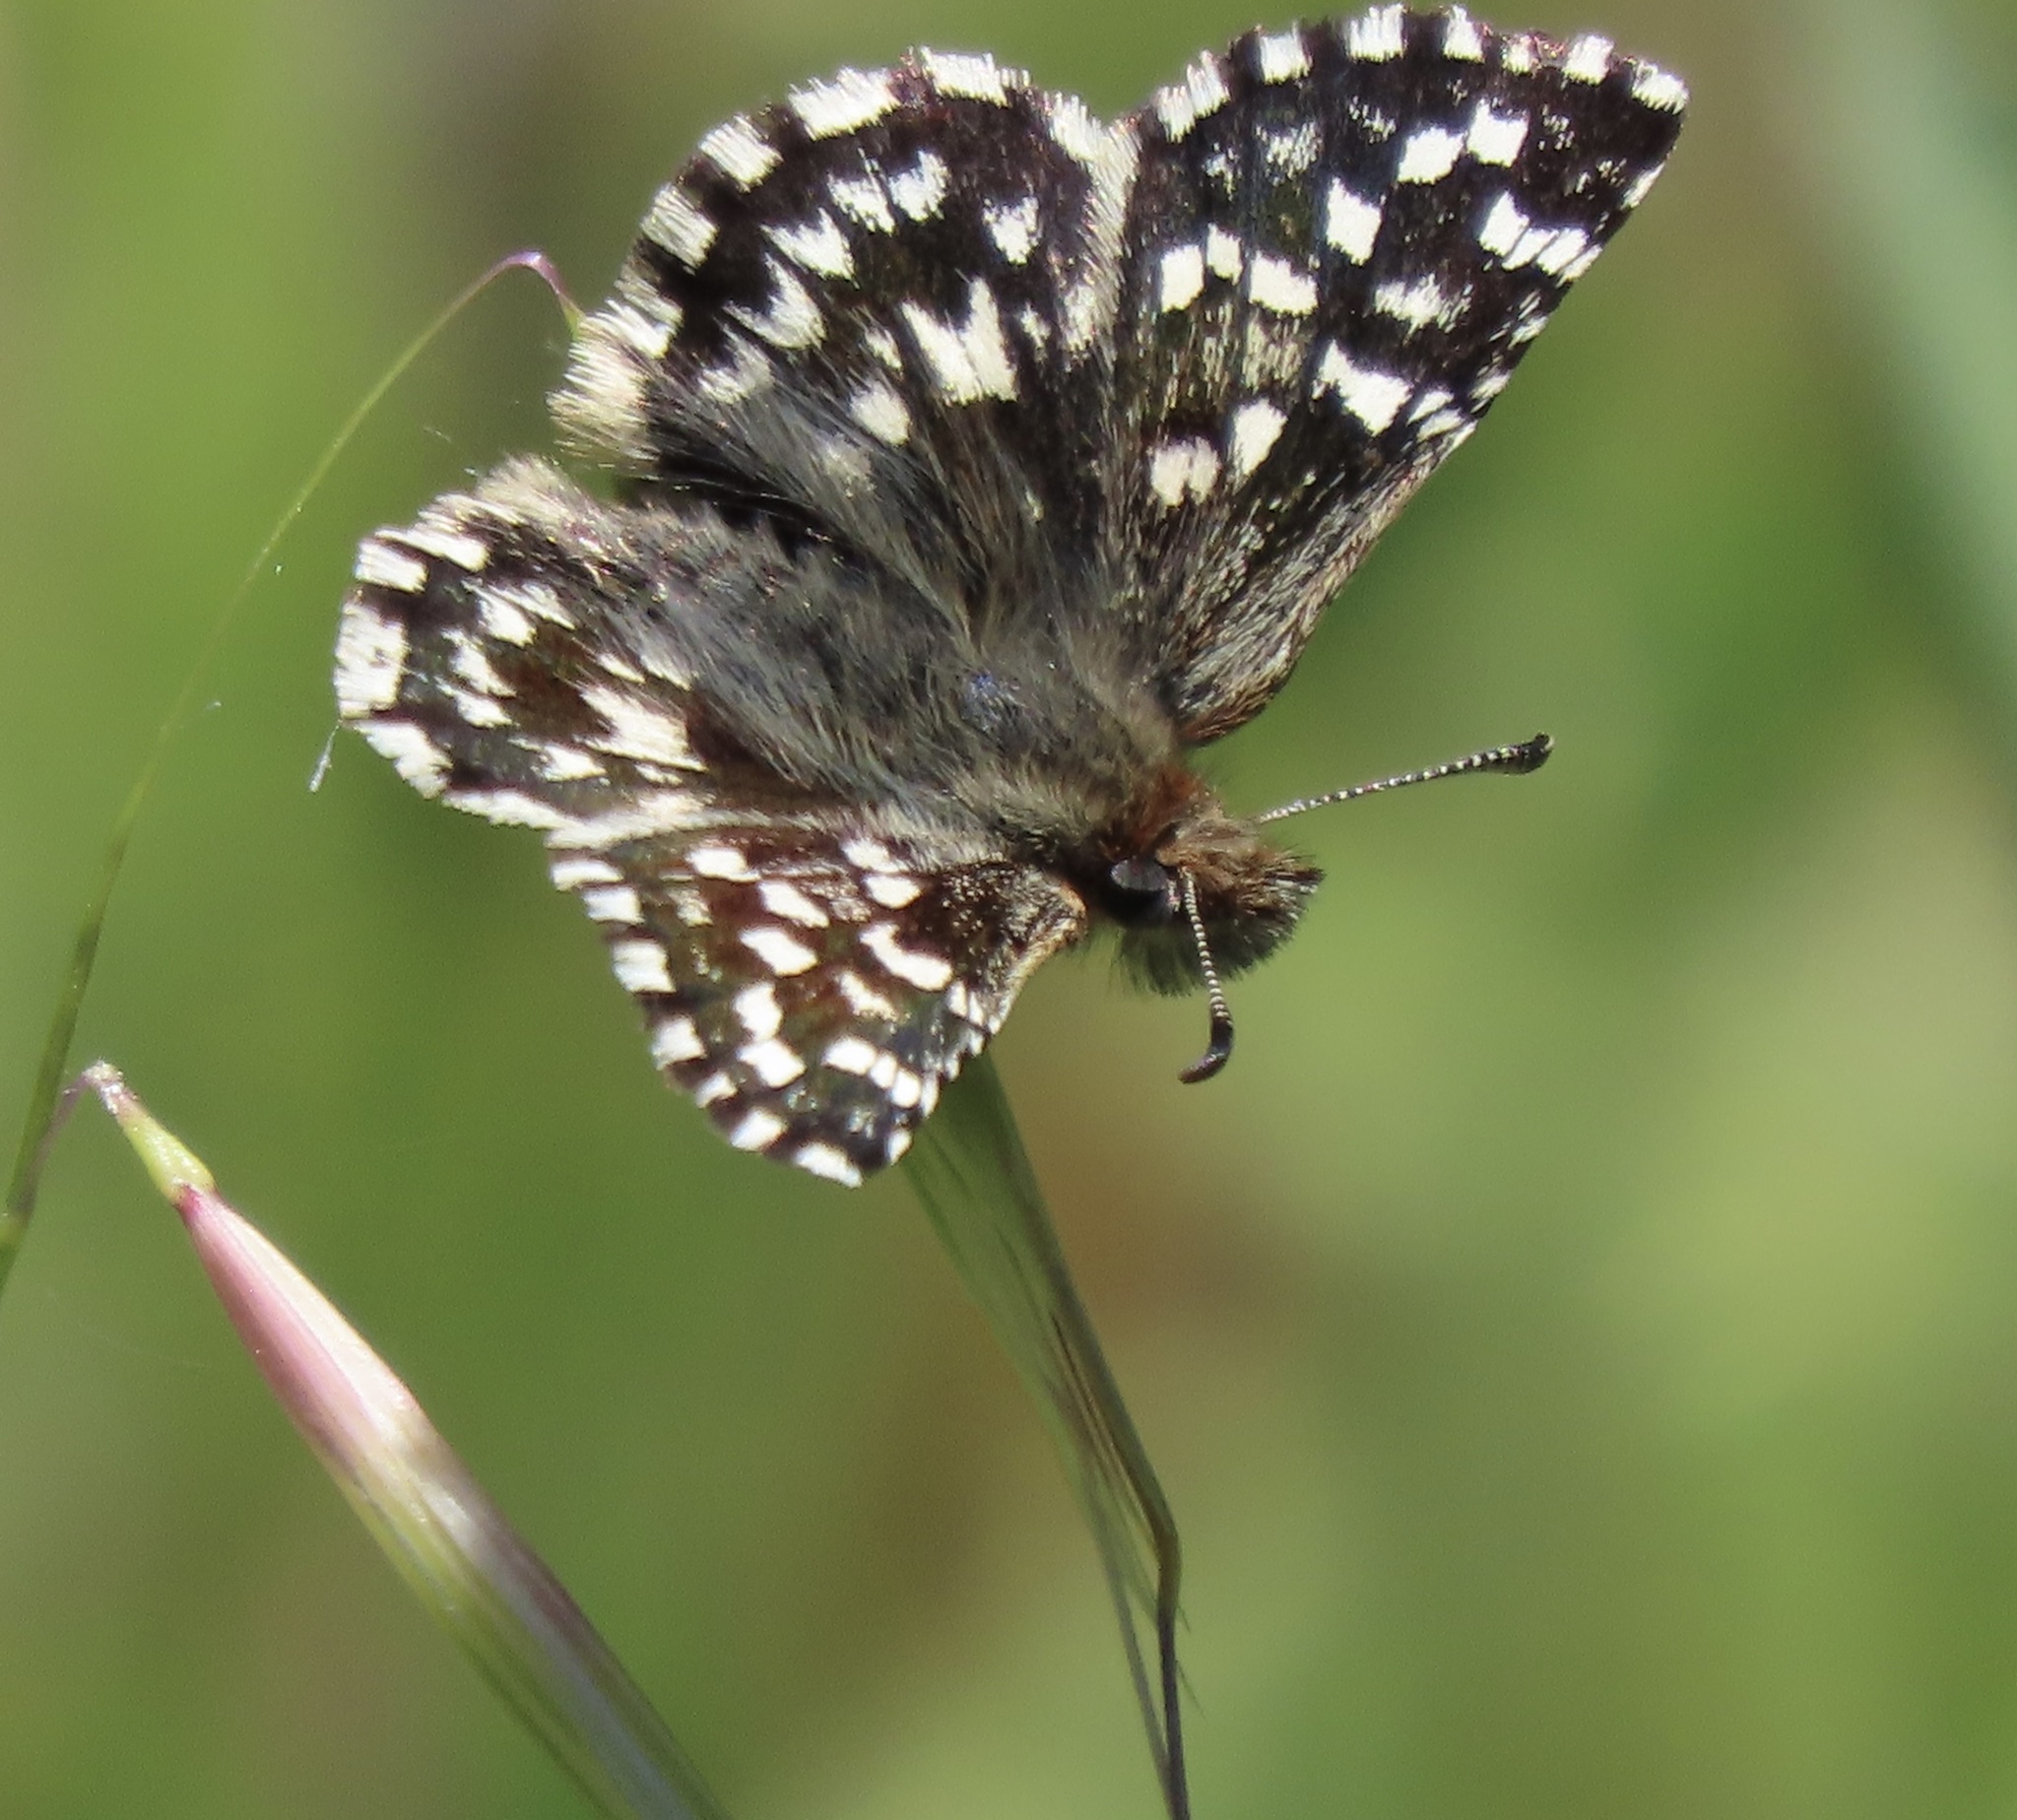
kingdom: Animalia
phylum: Arthropoda
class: Insecta
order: Lepidoptera
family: Hesperiidae
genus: Pyrgus
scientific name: Pyrgus ruralis
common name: Two-banded checkered-skipper
